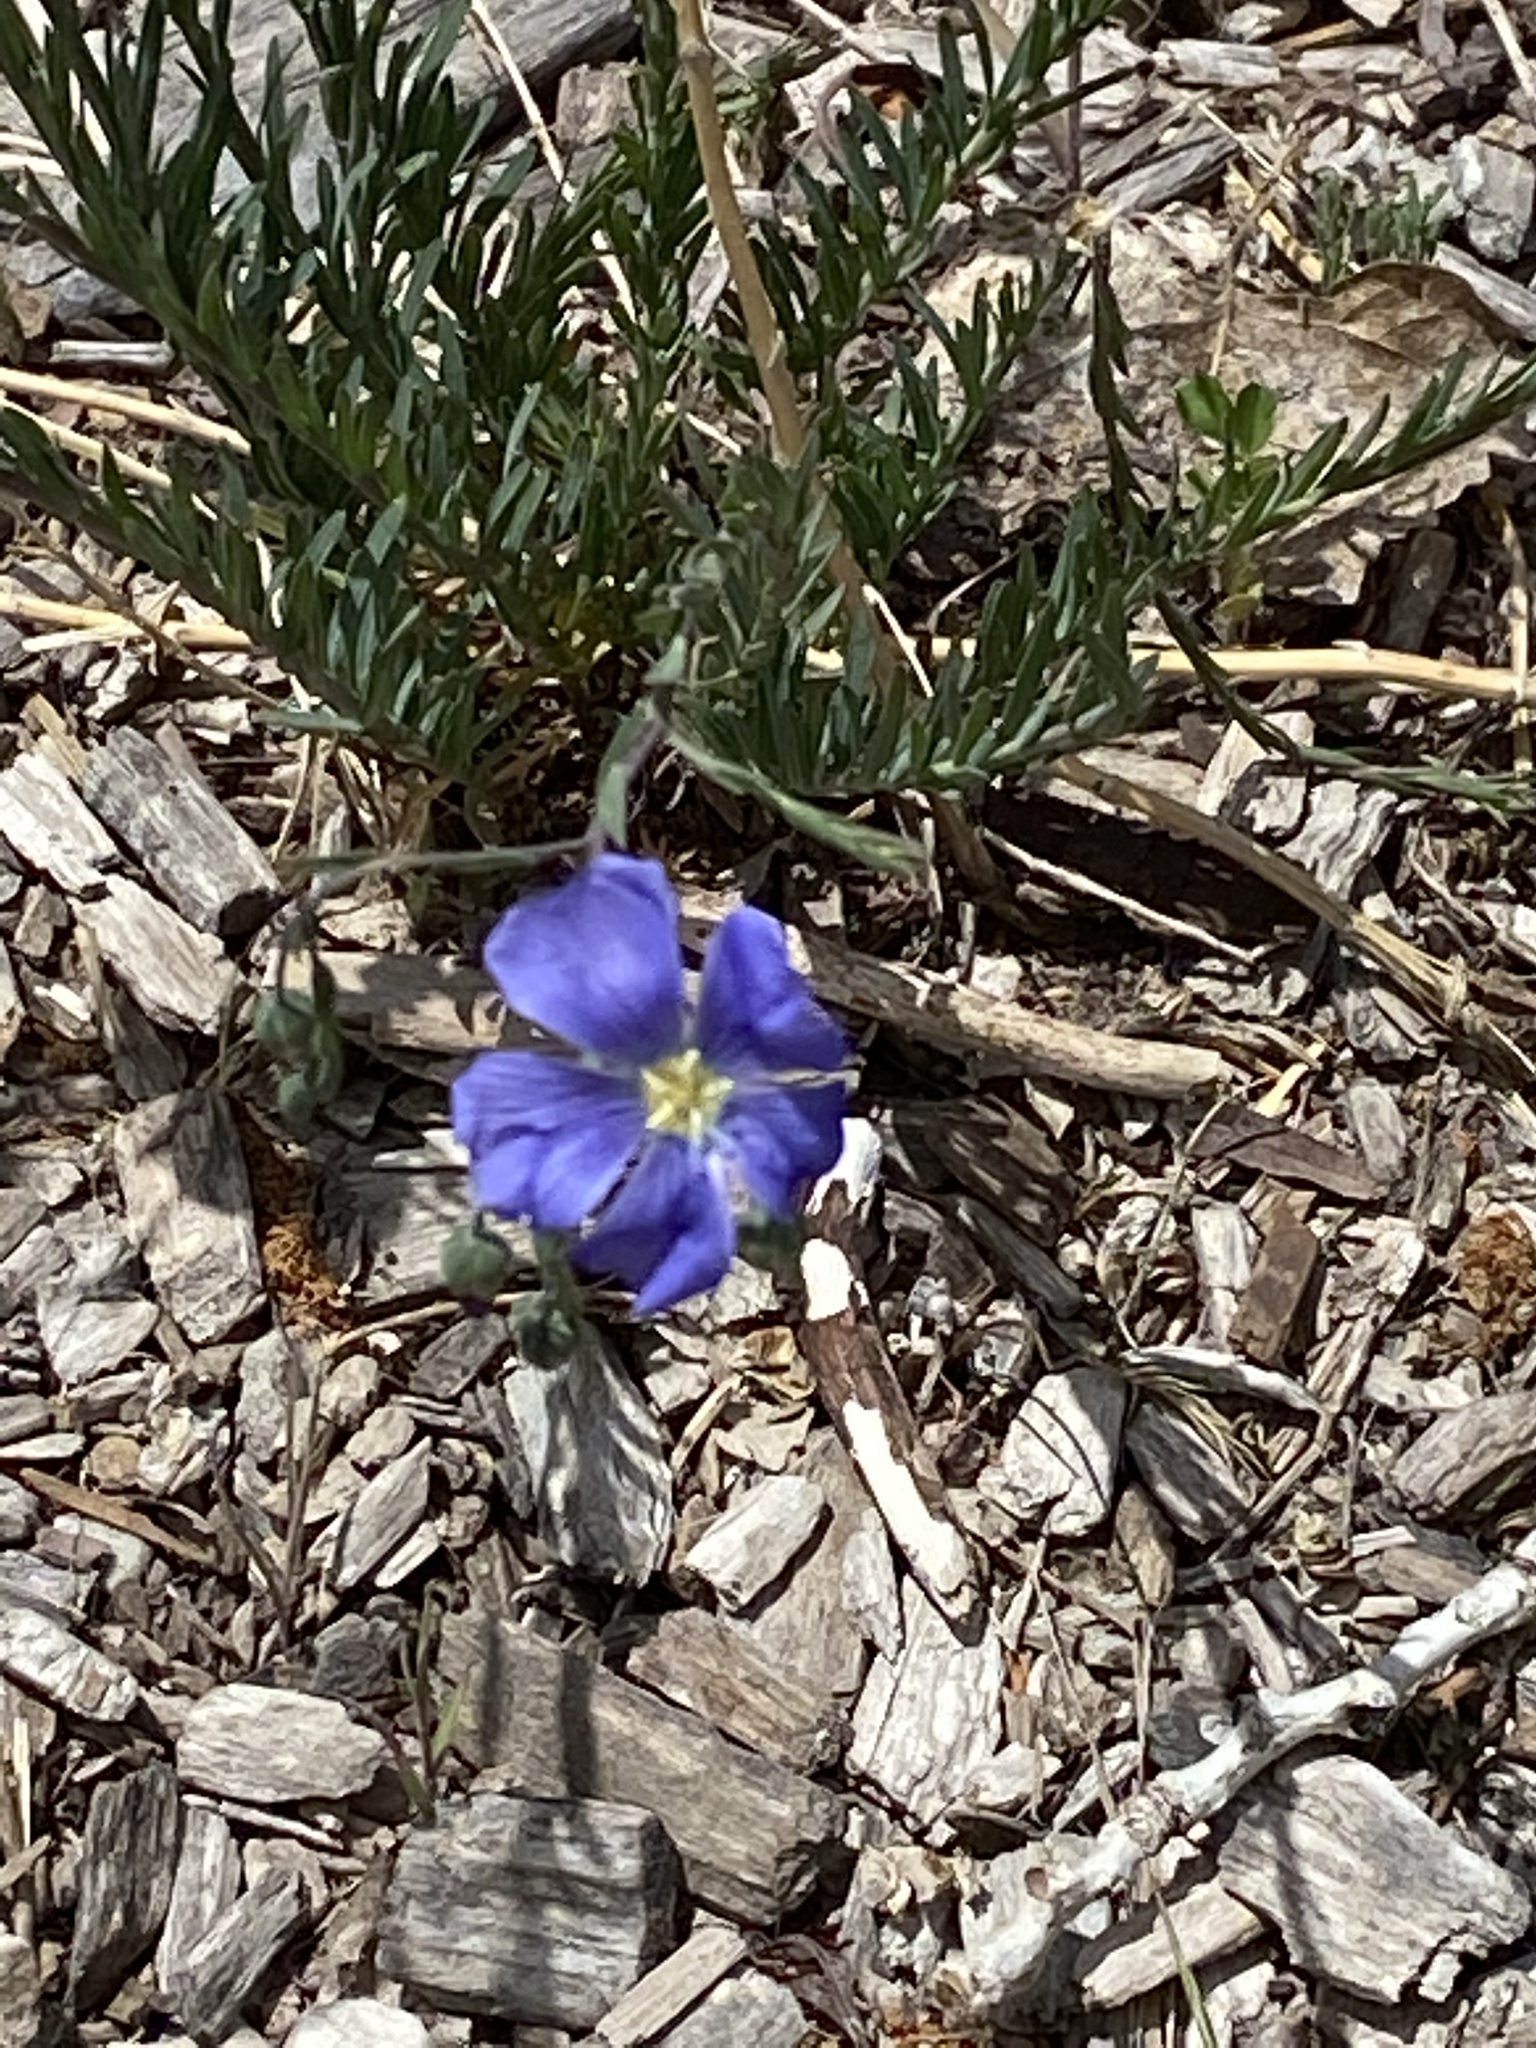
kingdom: Plantae
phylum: Tracheophyta
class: Magnoliopsida
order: Malpighiales
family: Linaceae
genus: Linum
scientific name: Linum lewisii
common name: Prairie flax
